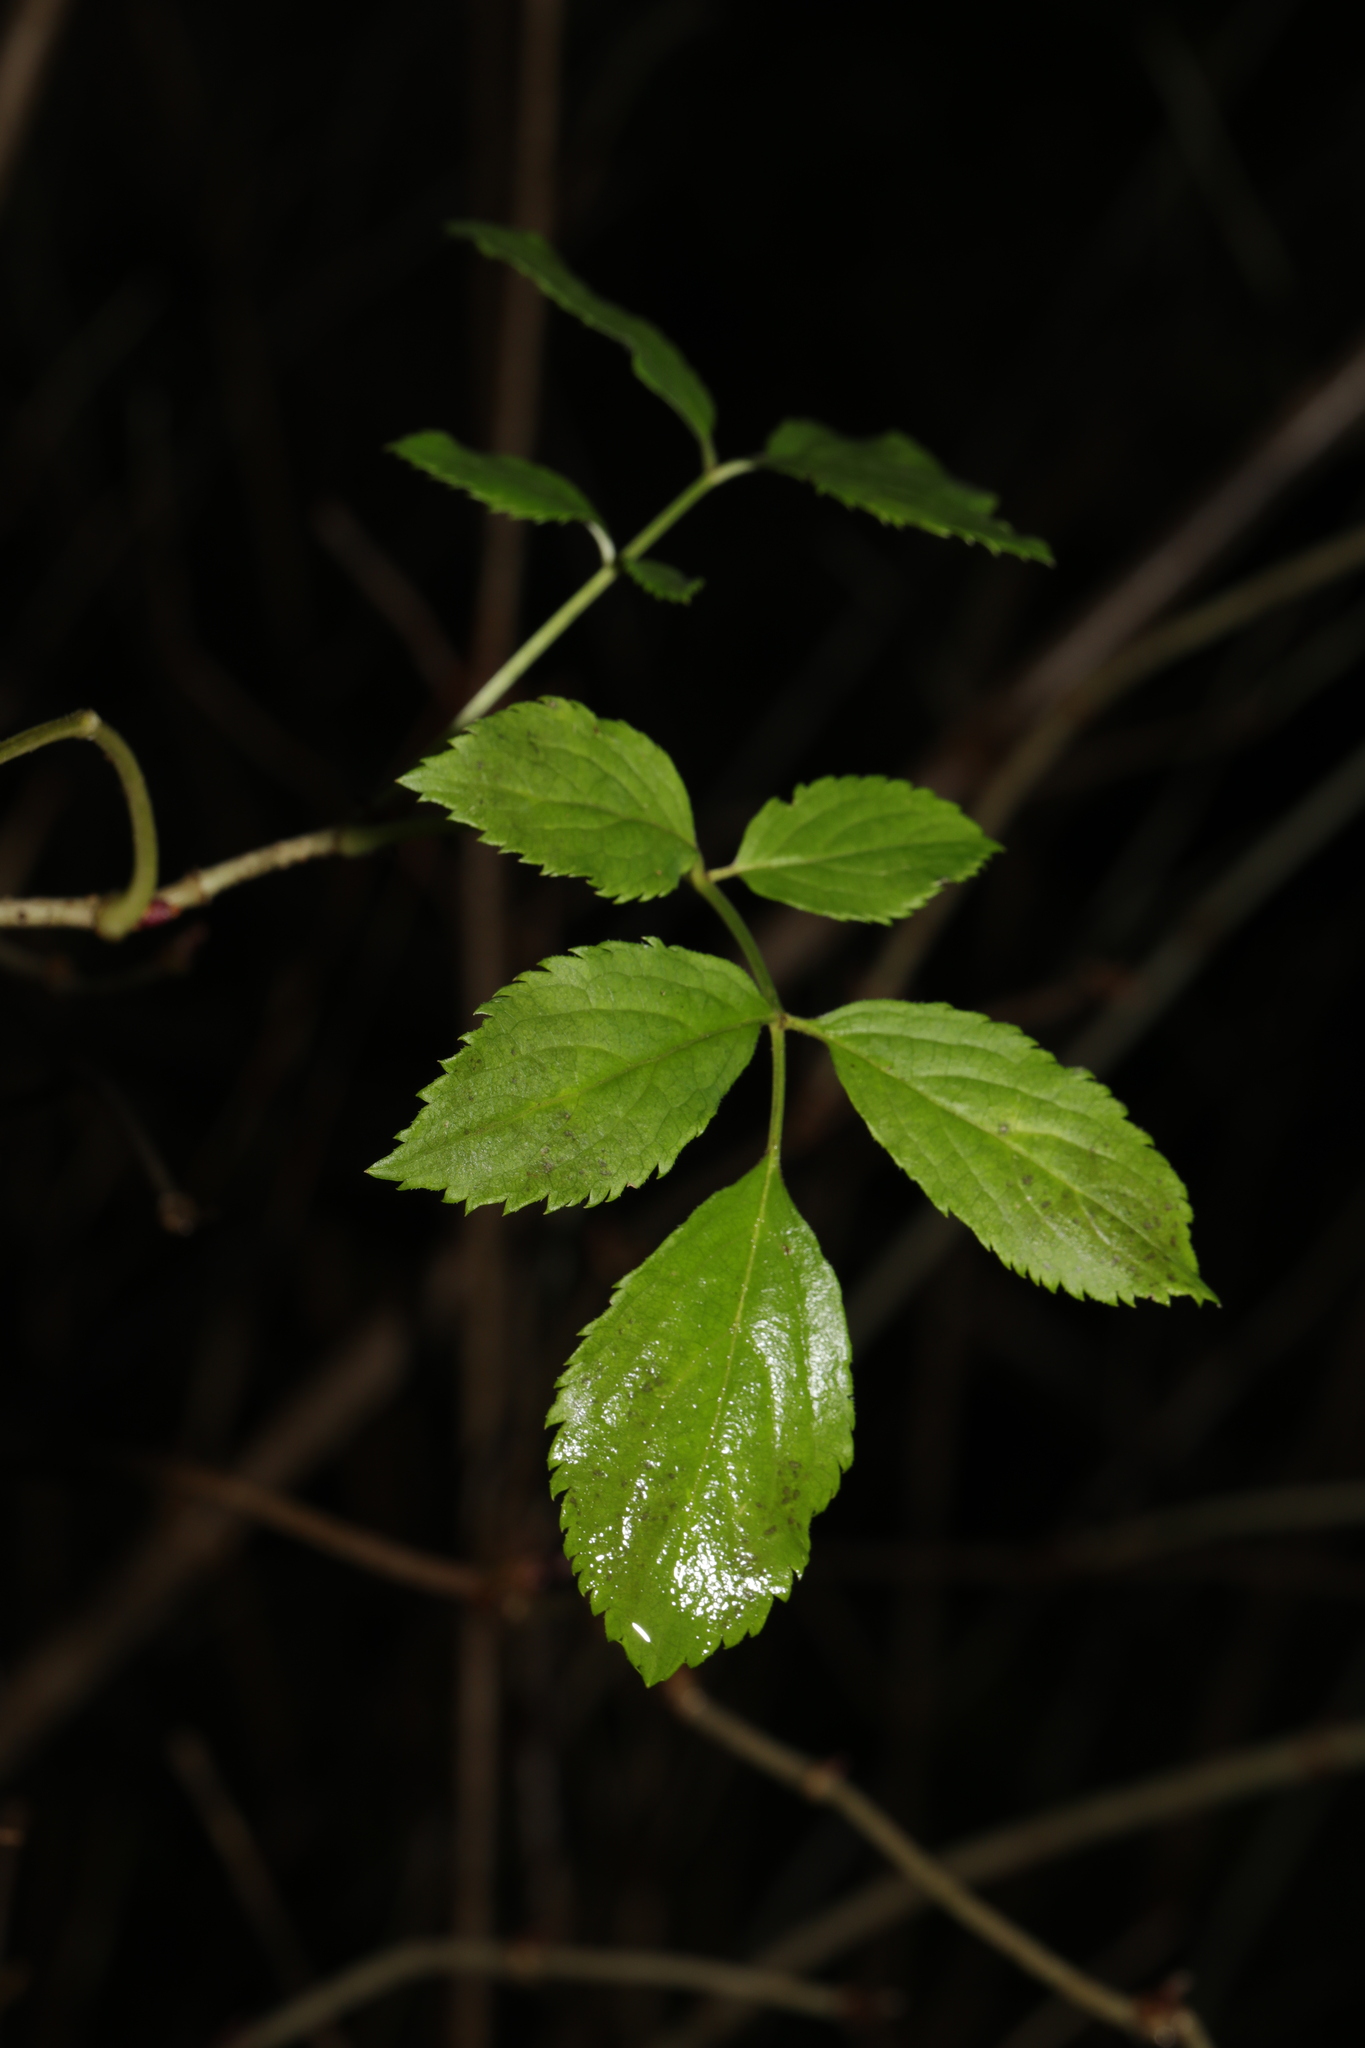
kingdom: Plantae
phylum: Tracheophyta
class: Magnoliopsida
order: Dipsacales
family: Viburnaceae
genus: Sambucus
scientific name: Sambucus nigra
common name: Elder
